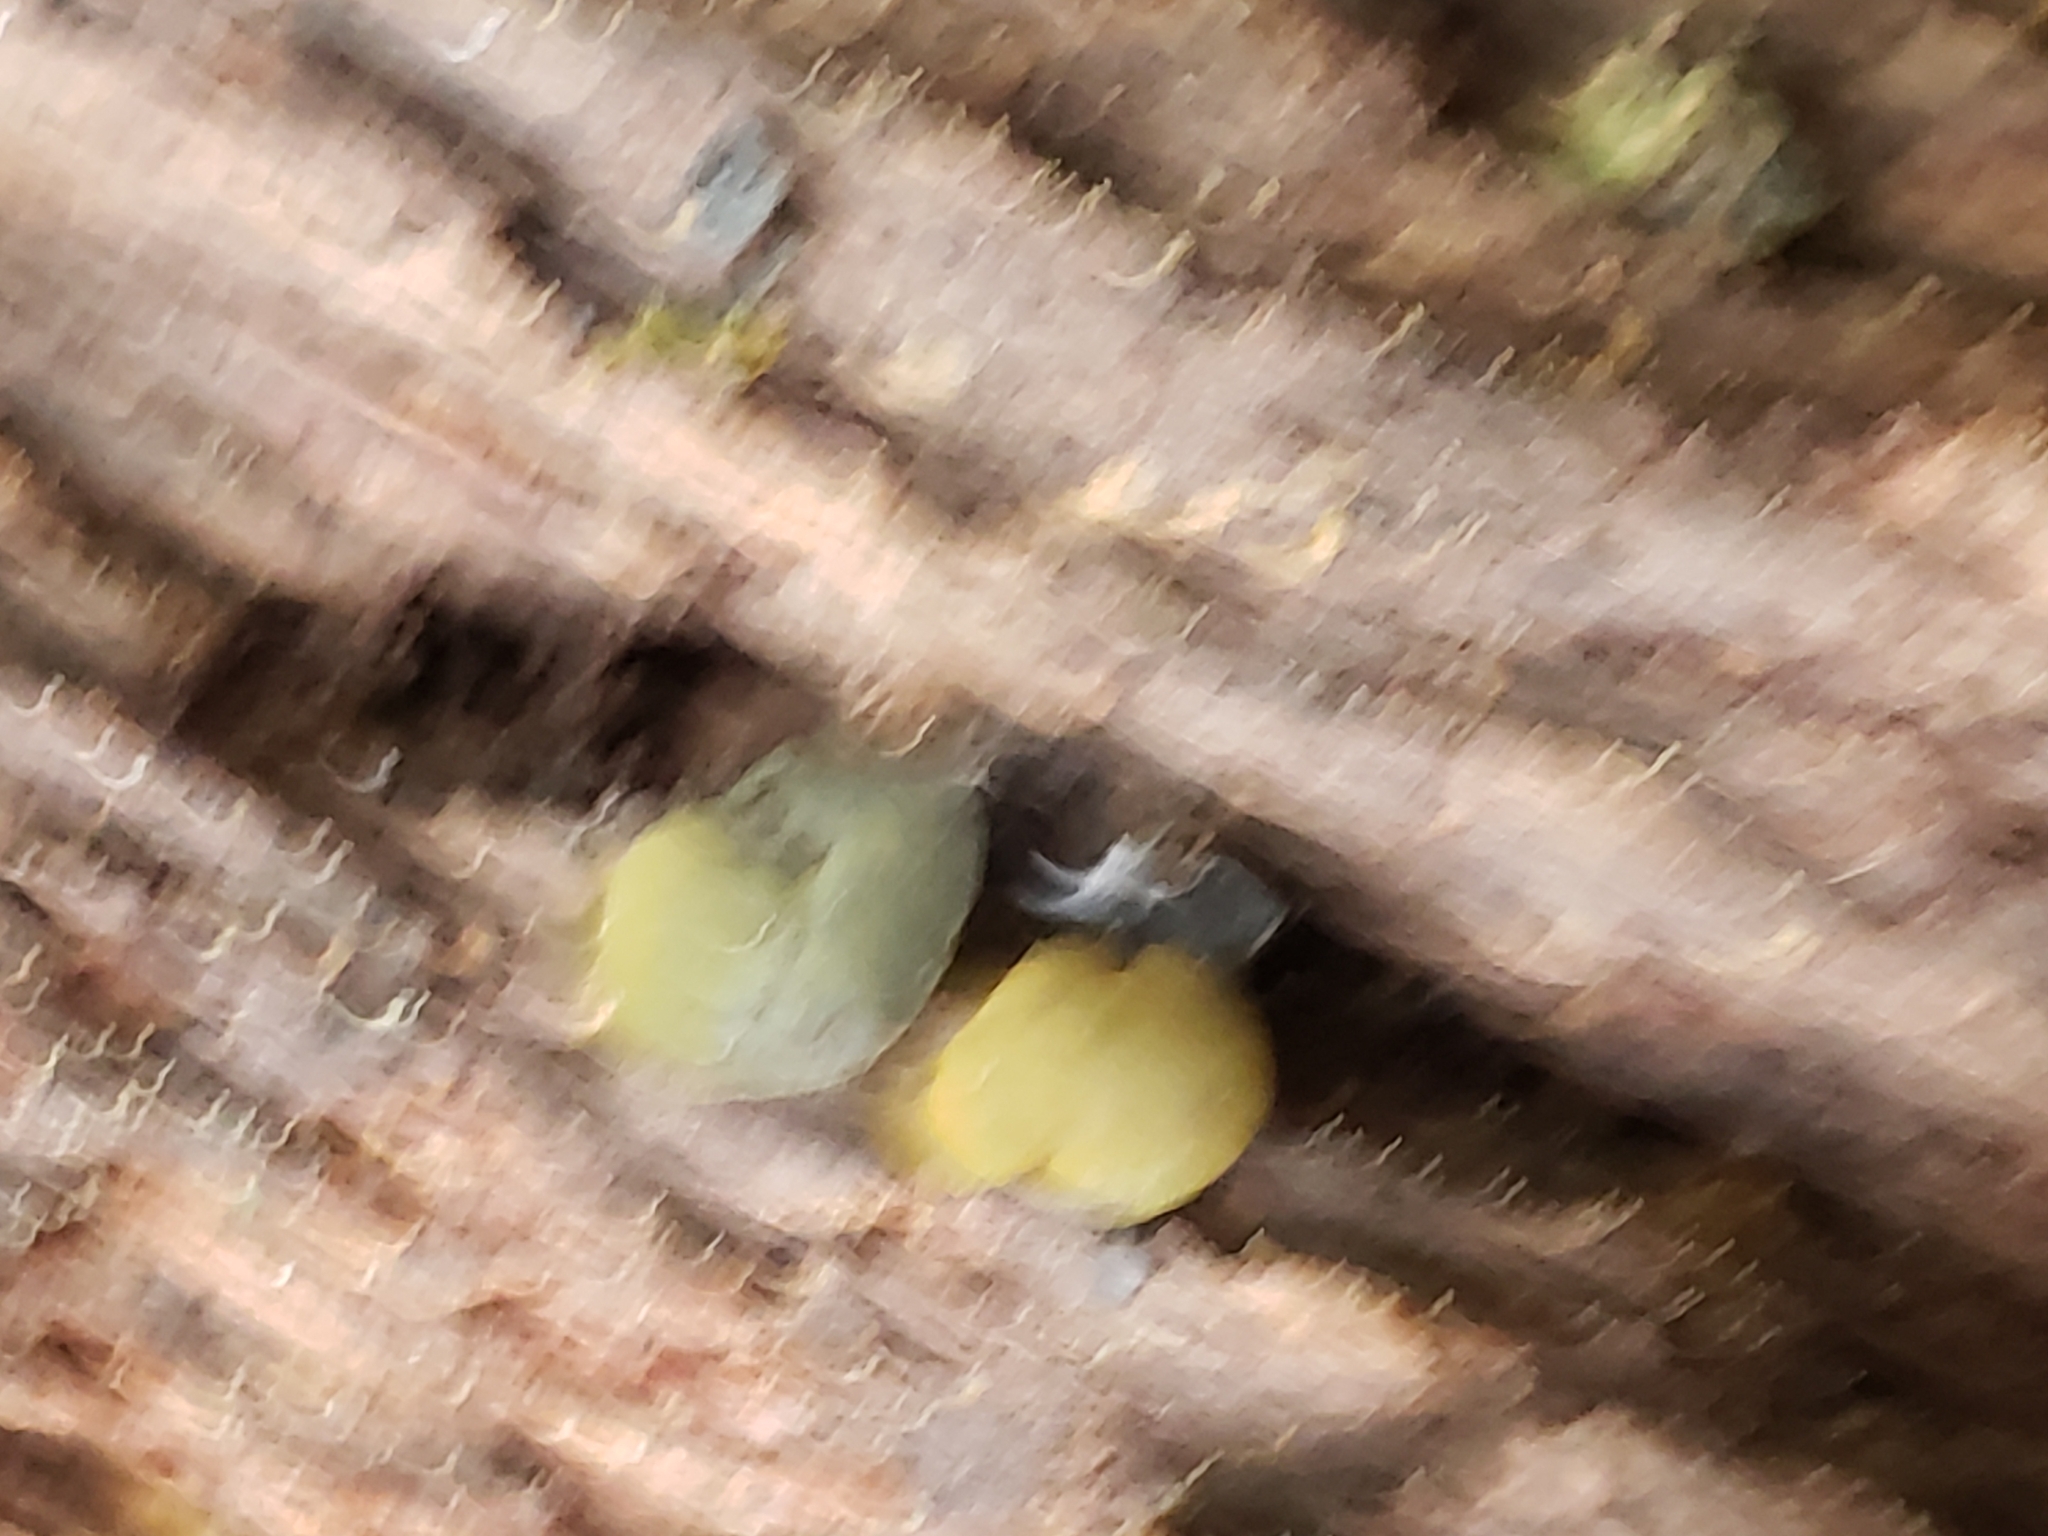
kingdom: Fungi
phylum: Ascomycota
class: Leotiomycetes
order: Helotiales
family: Cenangiaceae
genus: Chlorencoelia
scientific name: Chlorencoelia
